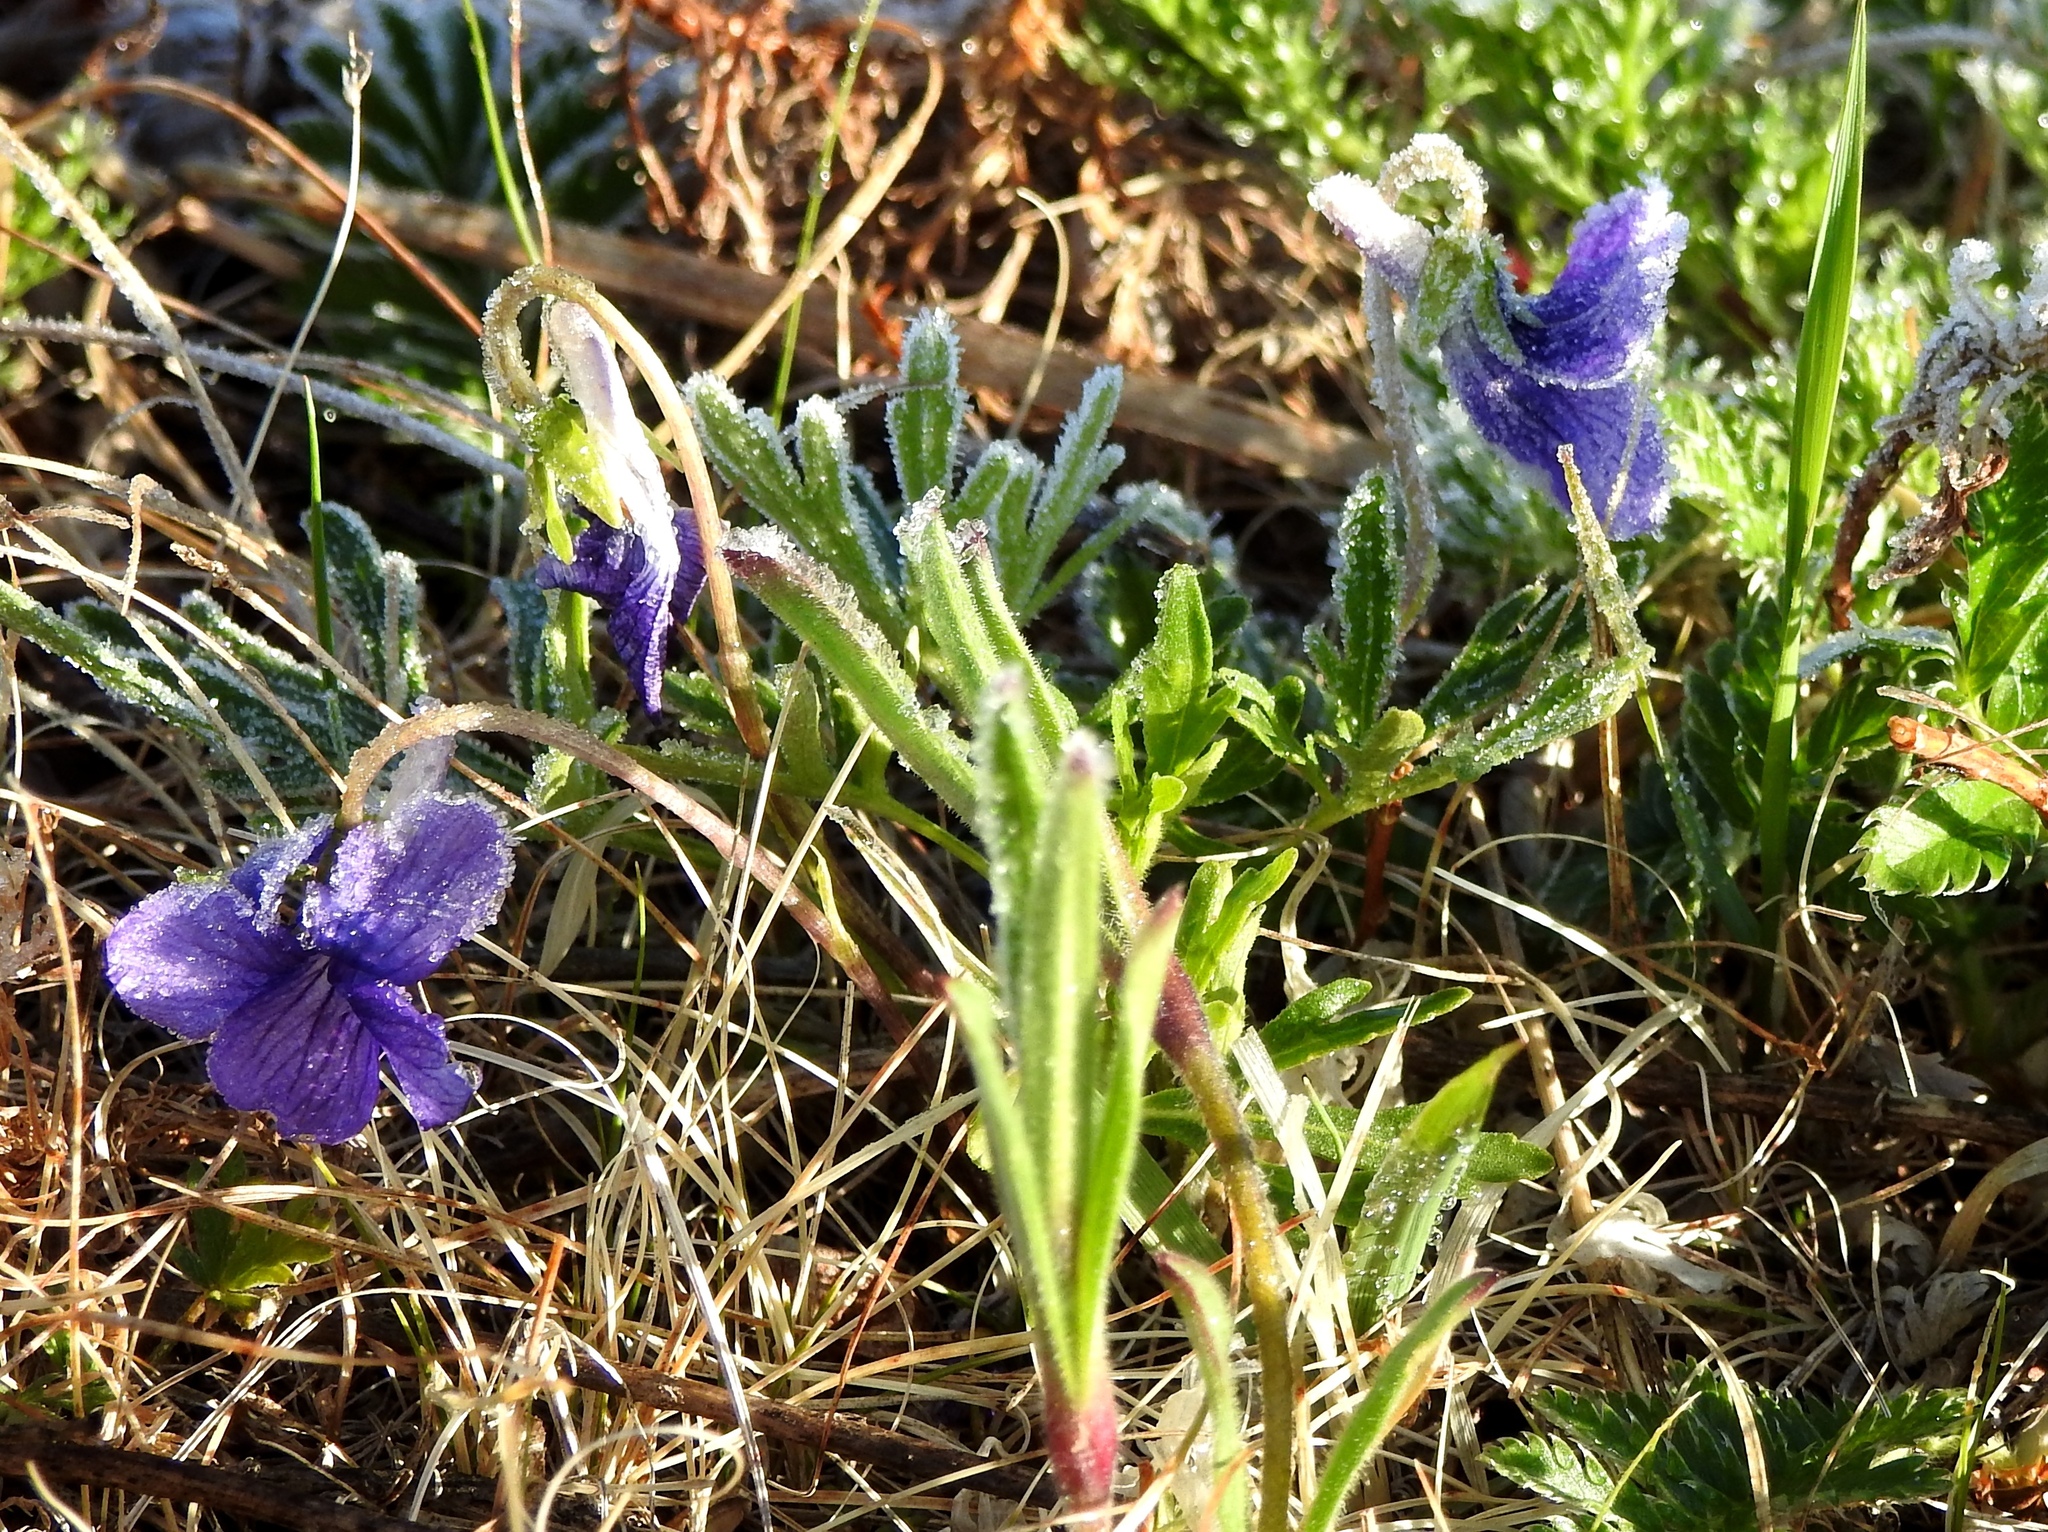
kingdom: Plantae
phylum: Tracheophyta
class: Magnoliopsida
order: Malpighiales
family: Violaceae
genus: Viola
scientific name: Viola multifida
